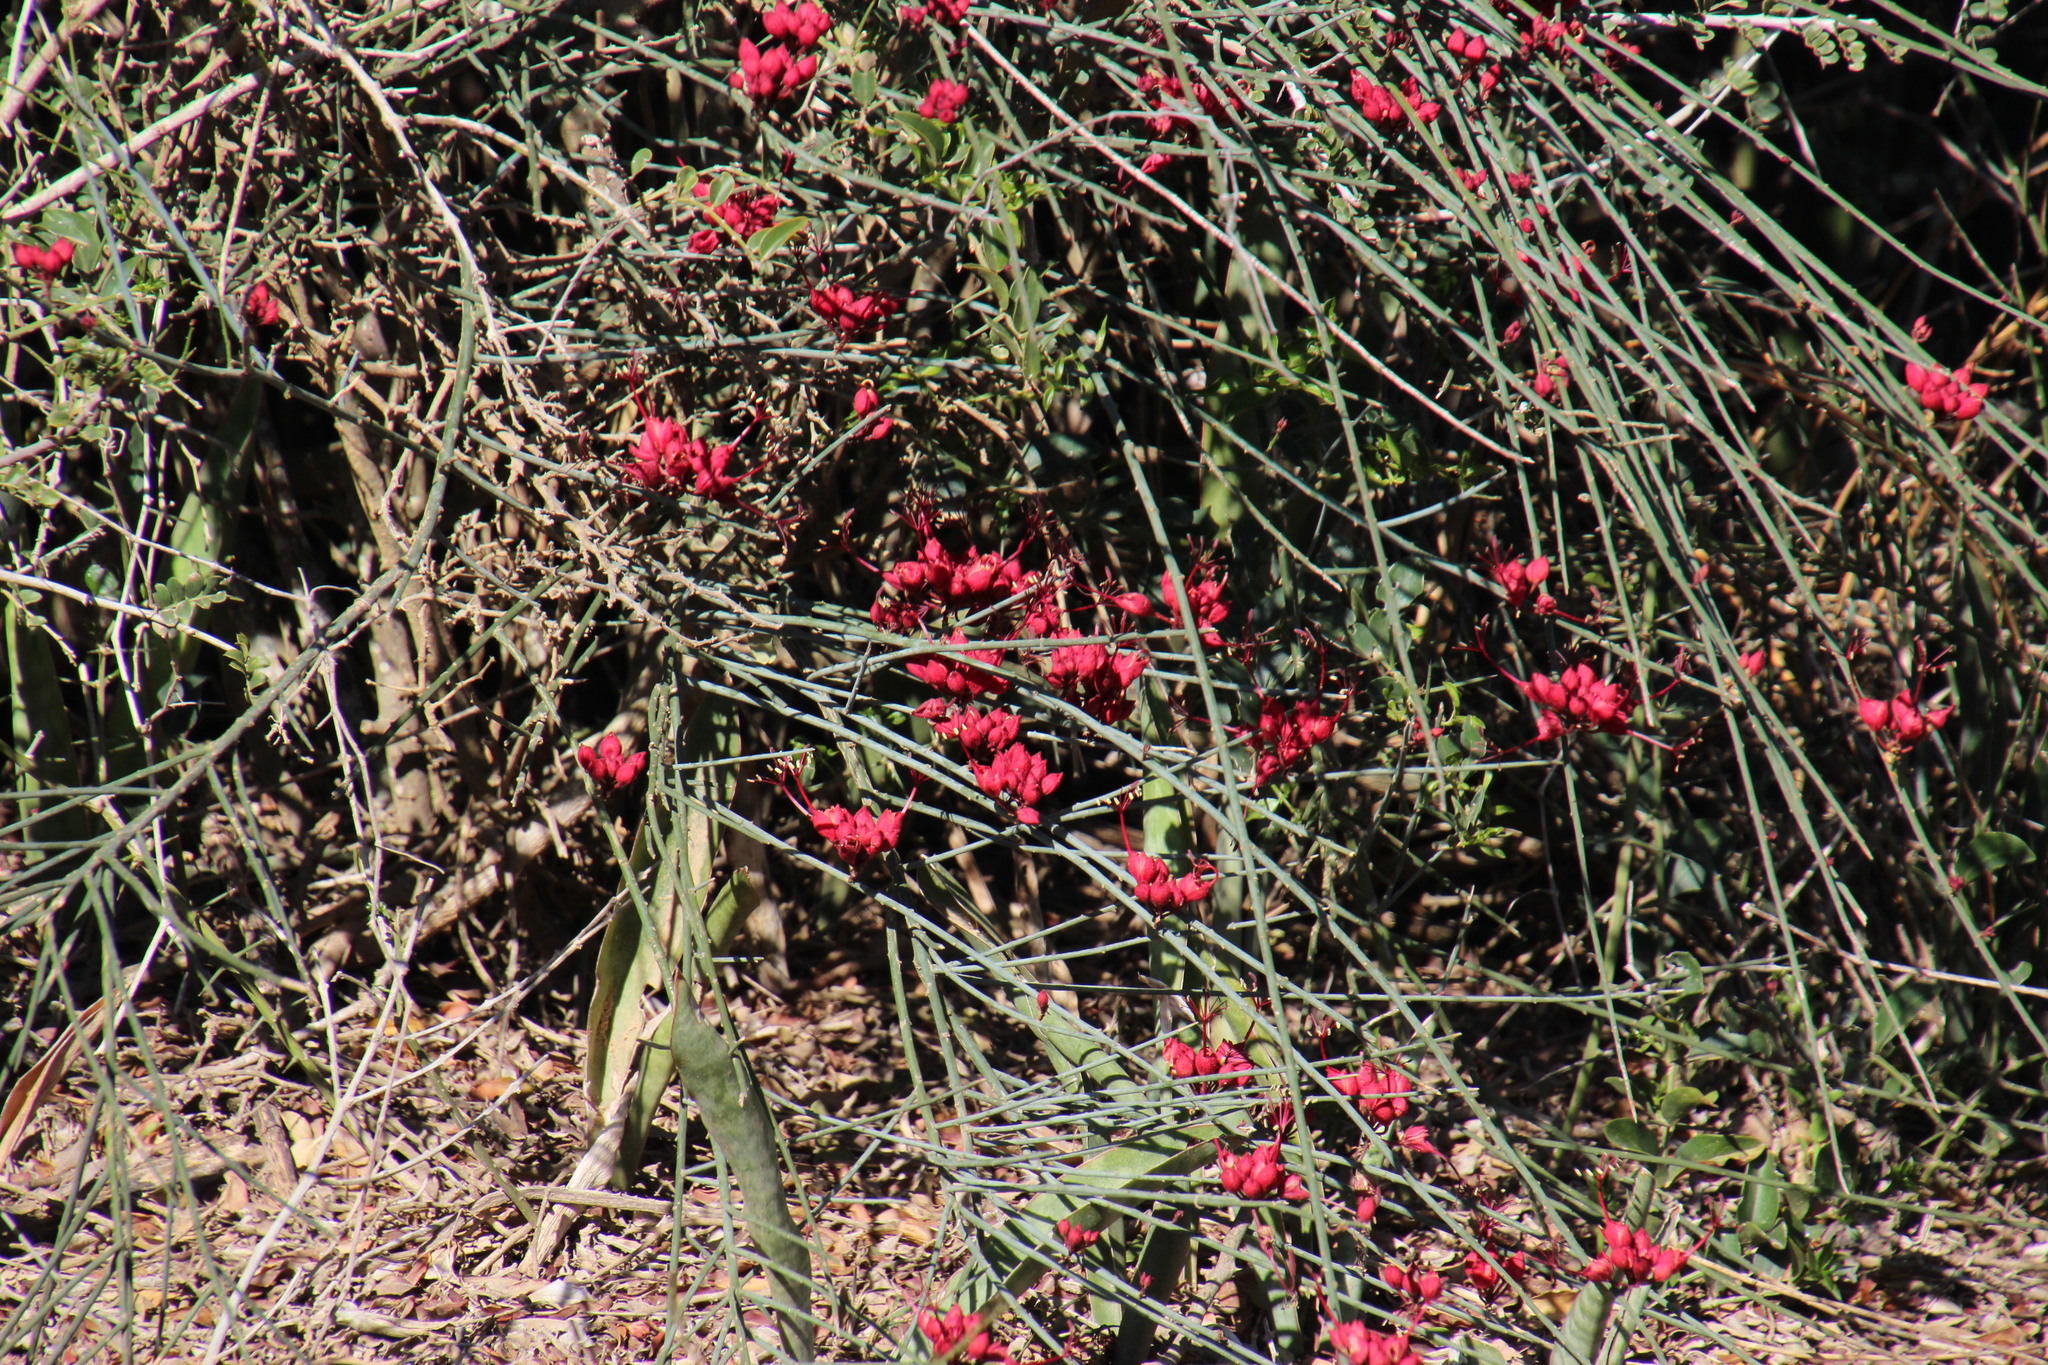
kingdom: Plantae
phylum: Tracheophyta
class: Magnoliopsida
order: Brassicales
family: Capparaceae
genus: Cadaba
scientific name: Cadaba aphylla
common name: Black storm
